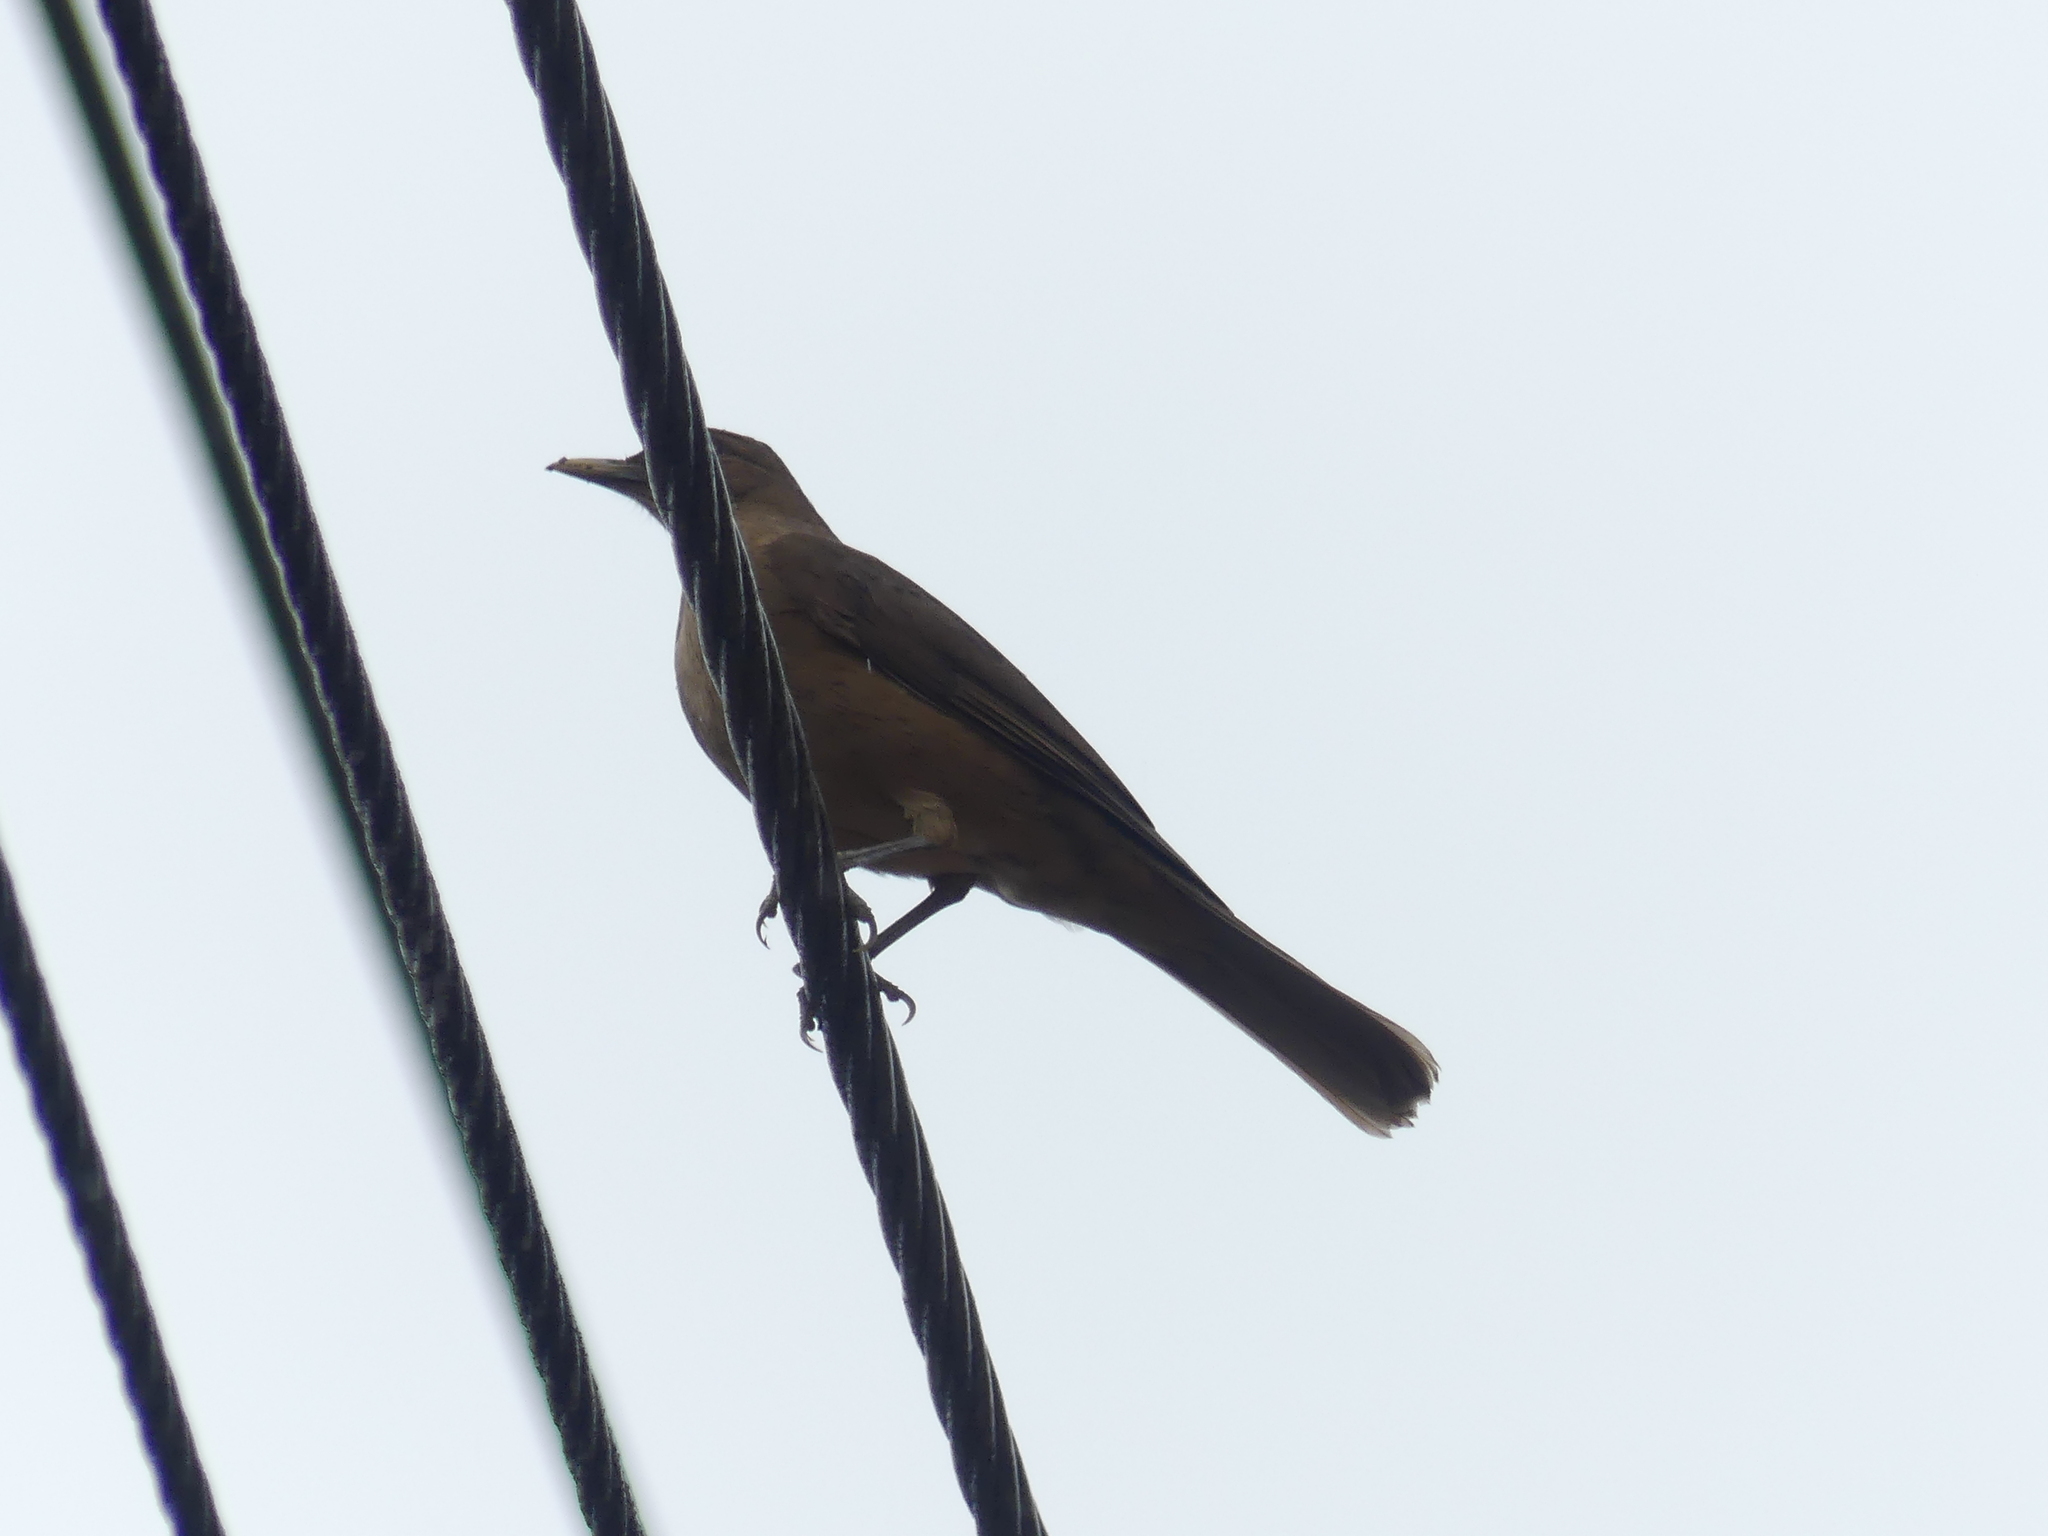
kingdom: Animalia
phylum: Chordata
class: Aves
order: Passeriformes
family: Turdidae
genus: Turdus
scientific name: Turdus grayi
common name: Clay-colored thrush
